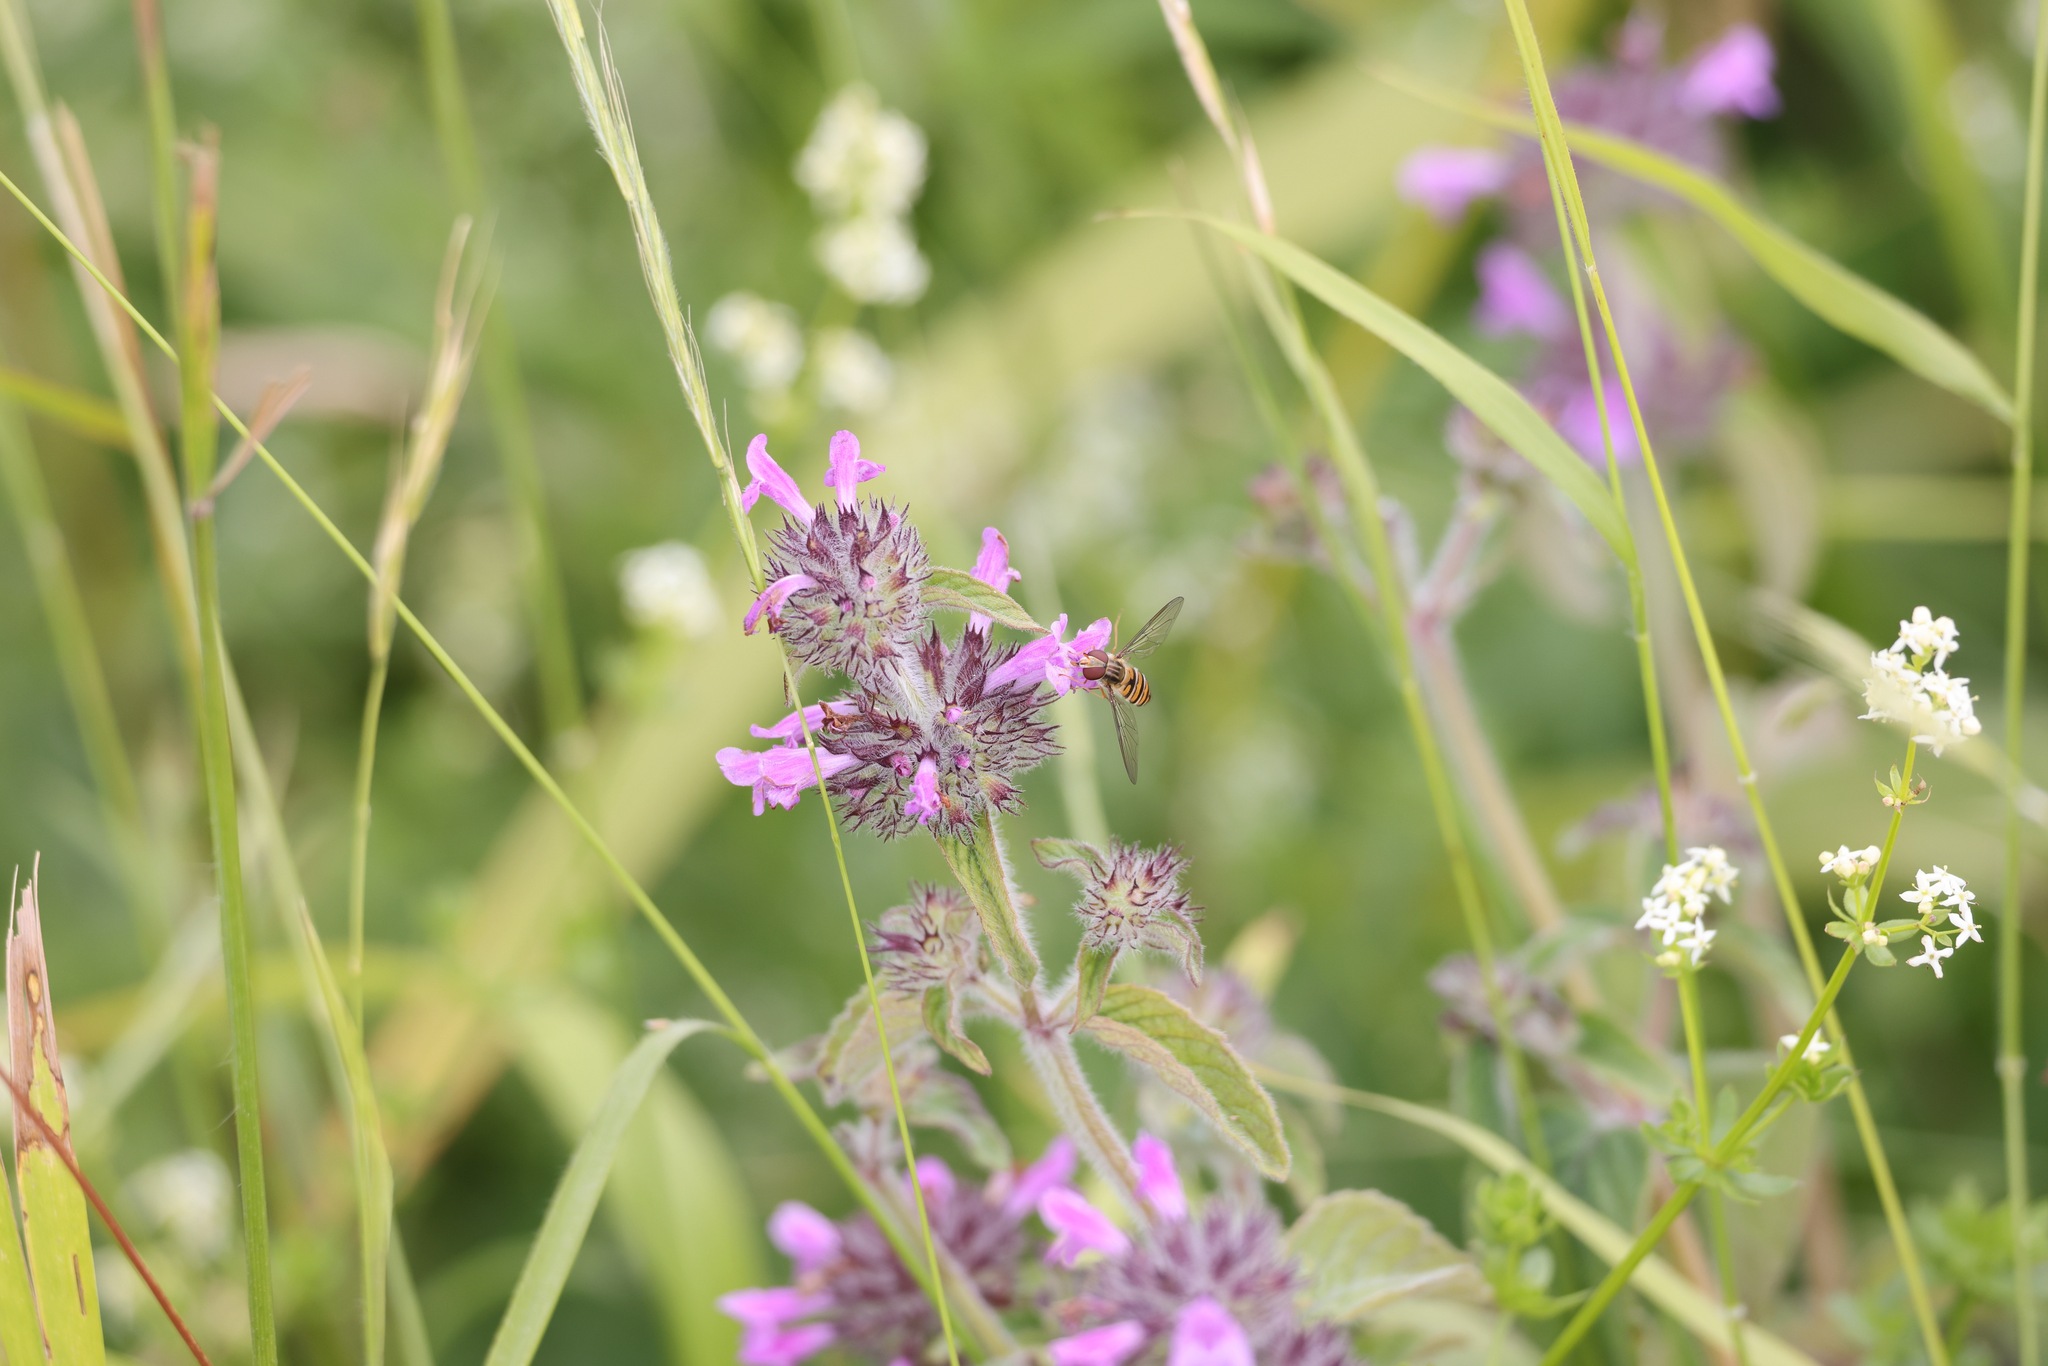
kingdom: Plantae
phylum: Tracheophyta
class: Magnoliopsida
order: Lamiales
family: Lamiaceae
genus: Clinopodium
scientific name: Clinopodium vulgare
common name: Wild basil
